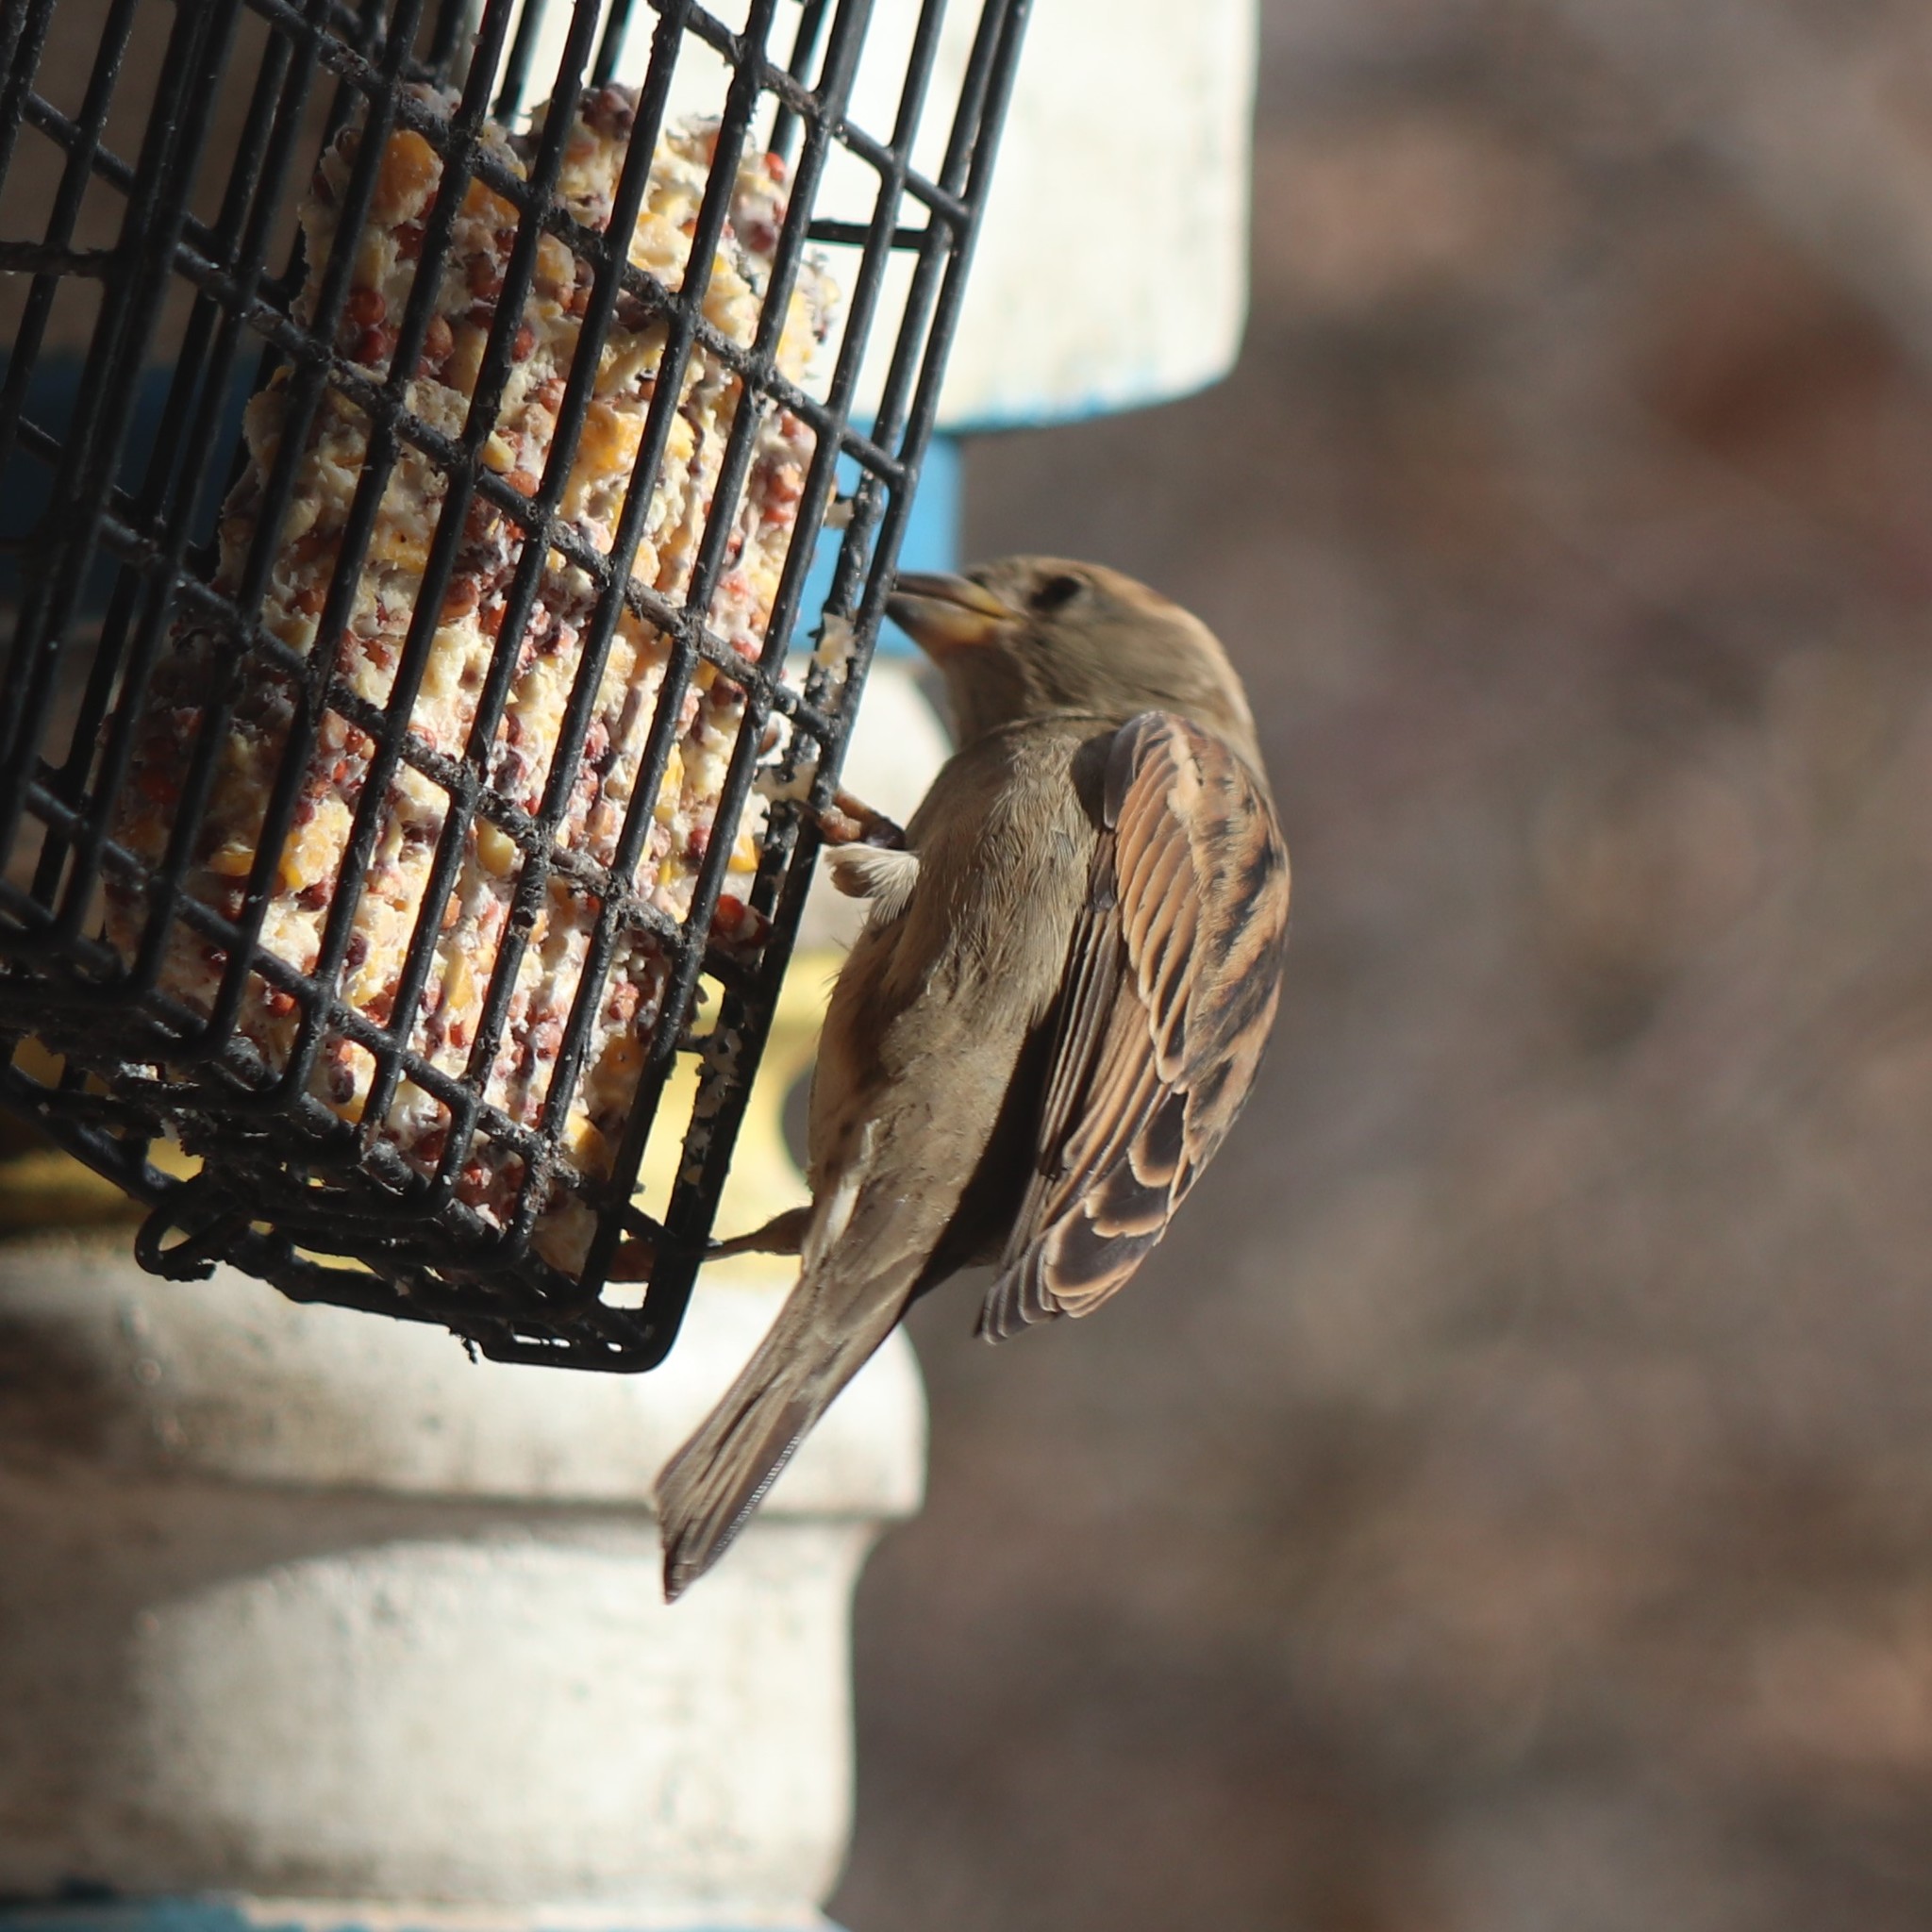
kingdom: Animalia
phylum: Chordata
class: Aves
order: Passeriformes
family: Passeridae
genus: Passer
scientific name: Passer domesticus
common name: House sparrow
